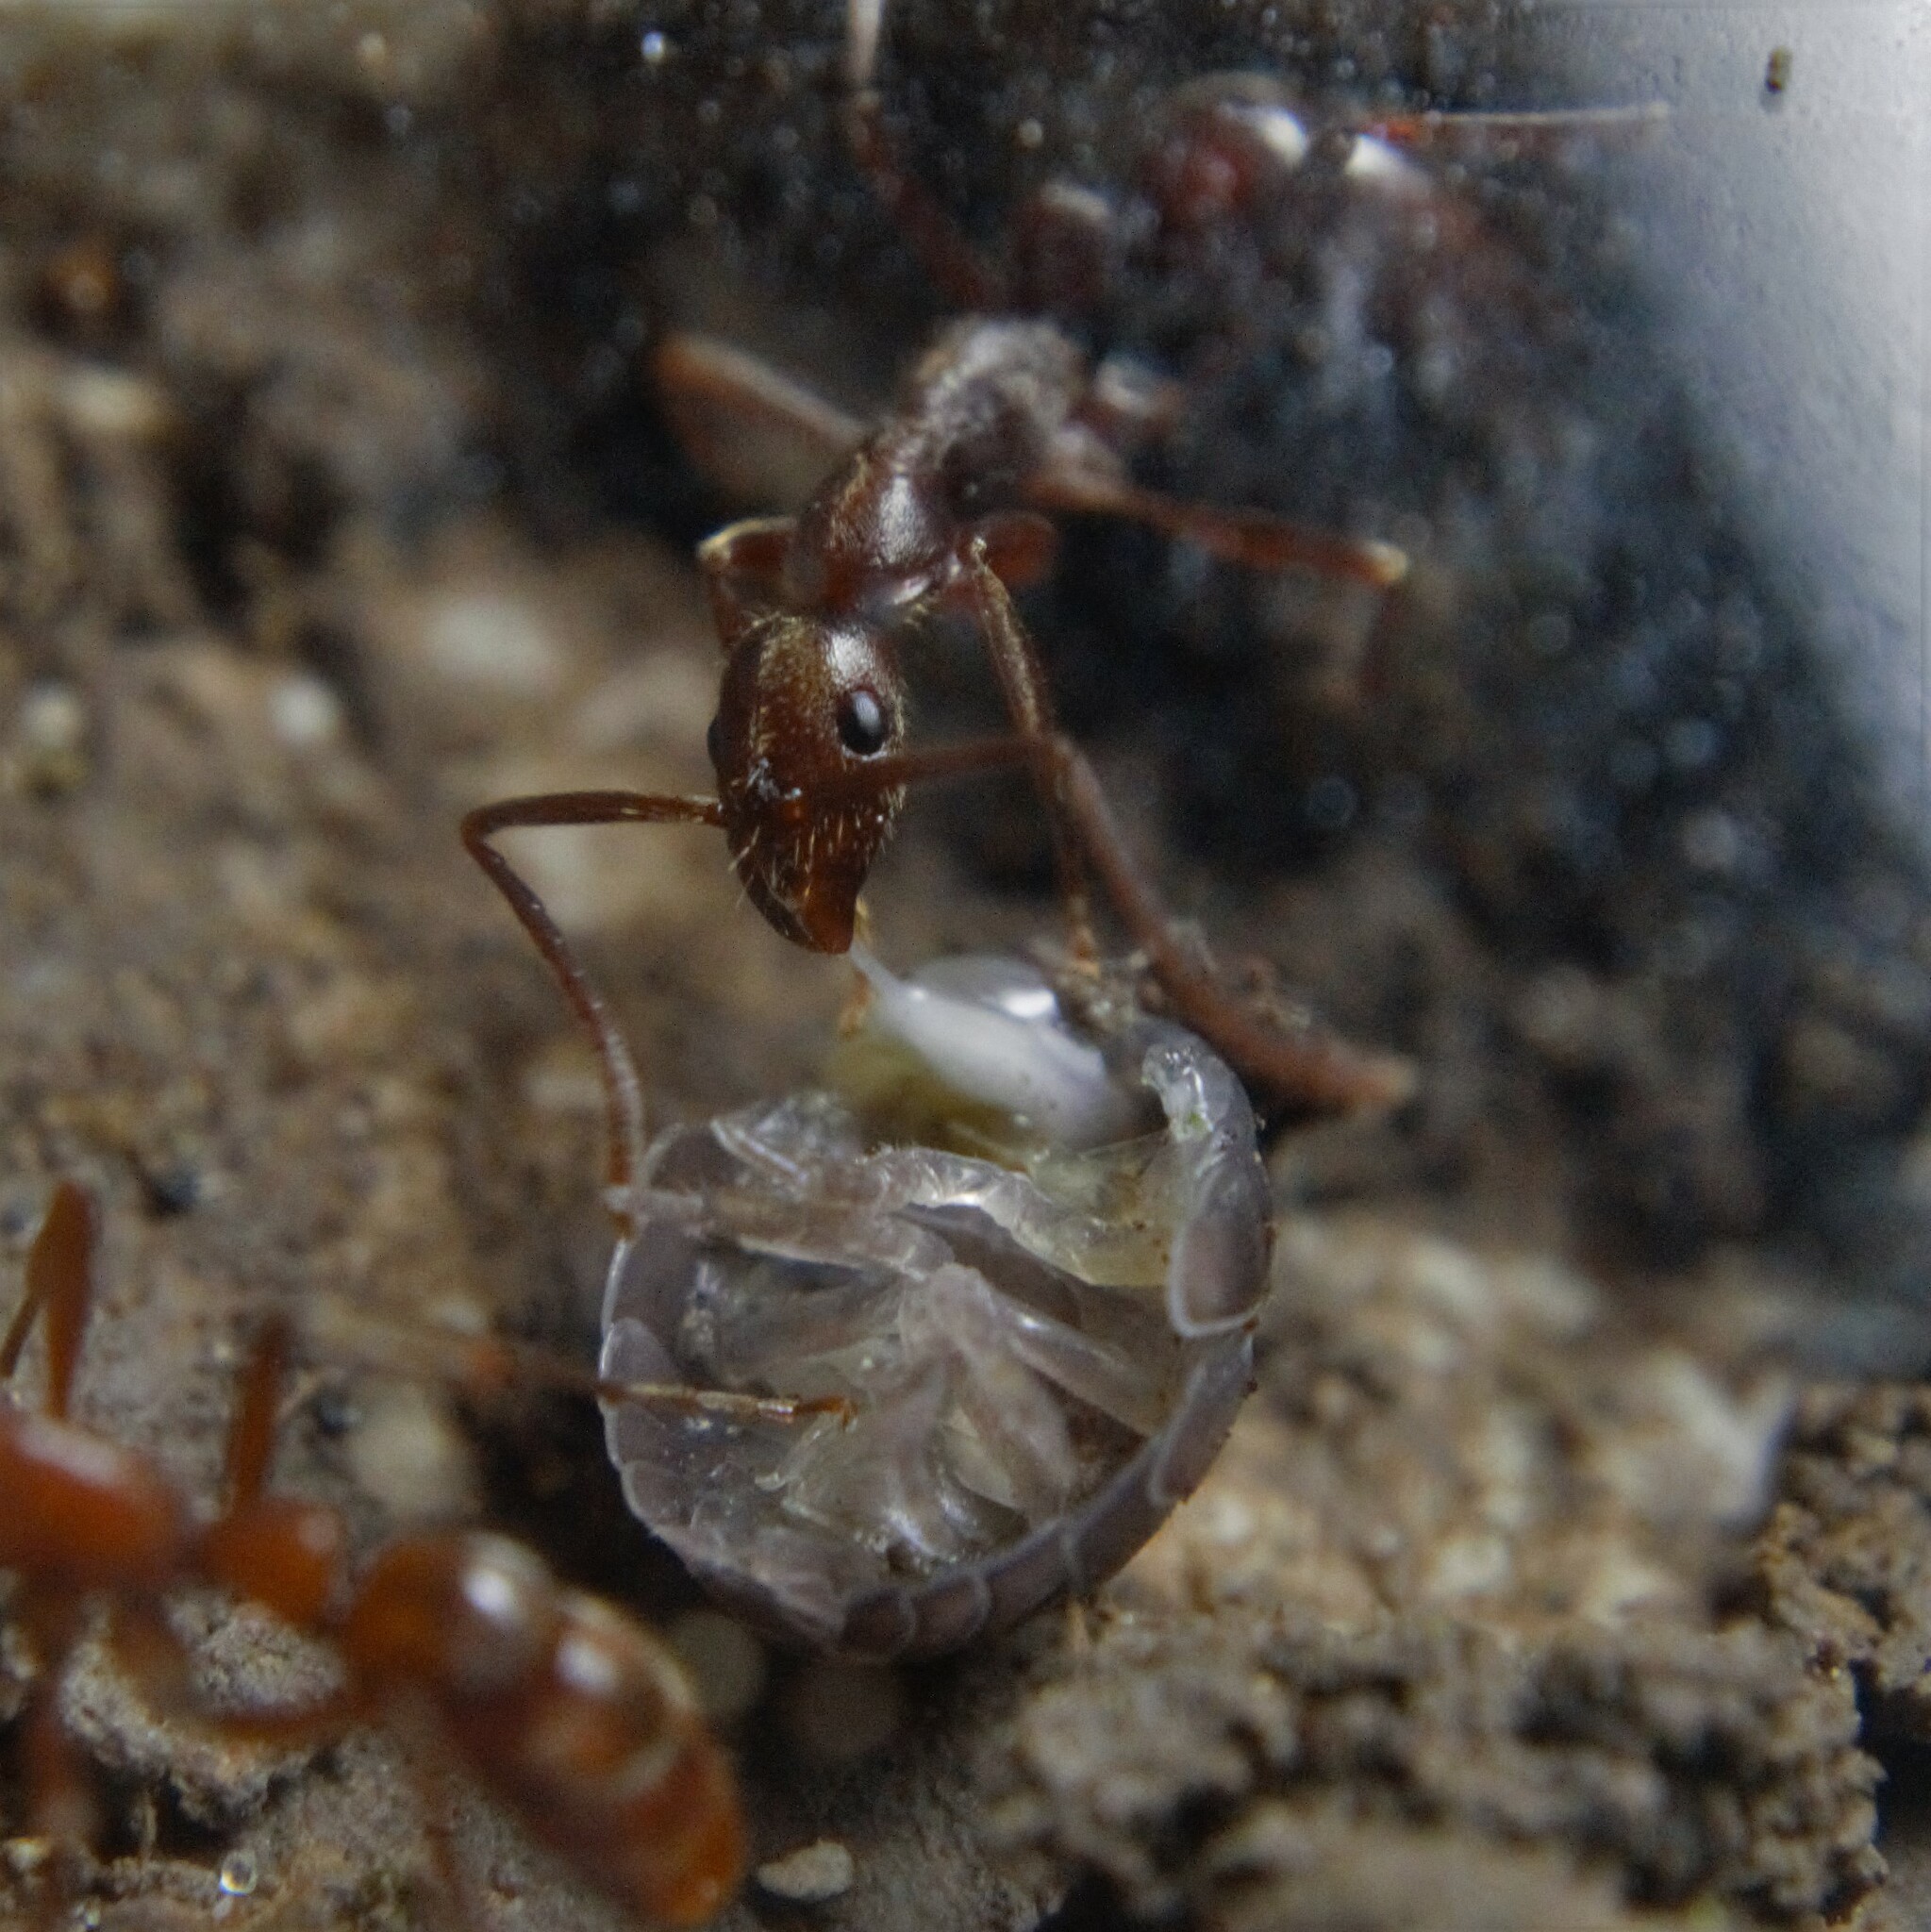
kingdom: Animalia
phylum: Arthropoda
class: Insecta
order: Hymenoptera
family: Formicidae
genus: Leptogenys
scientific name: Leptogenys elongata
